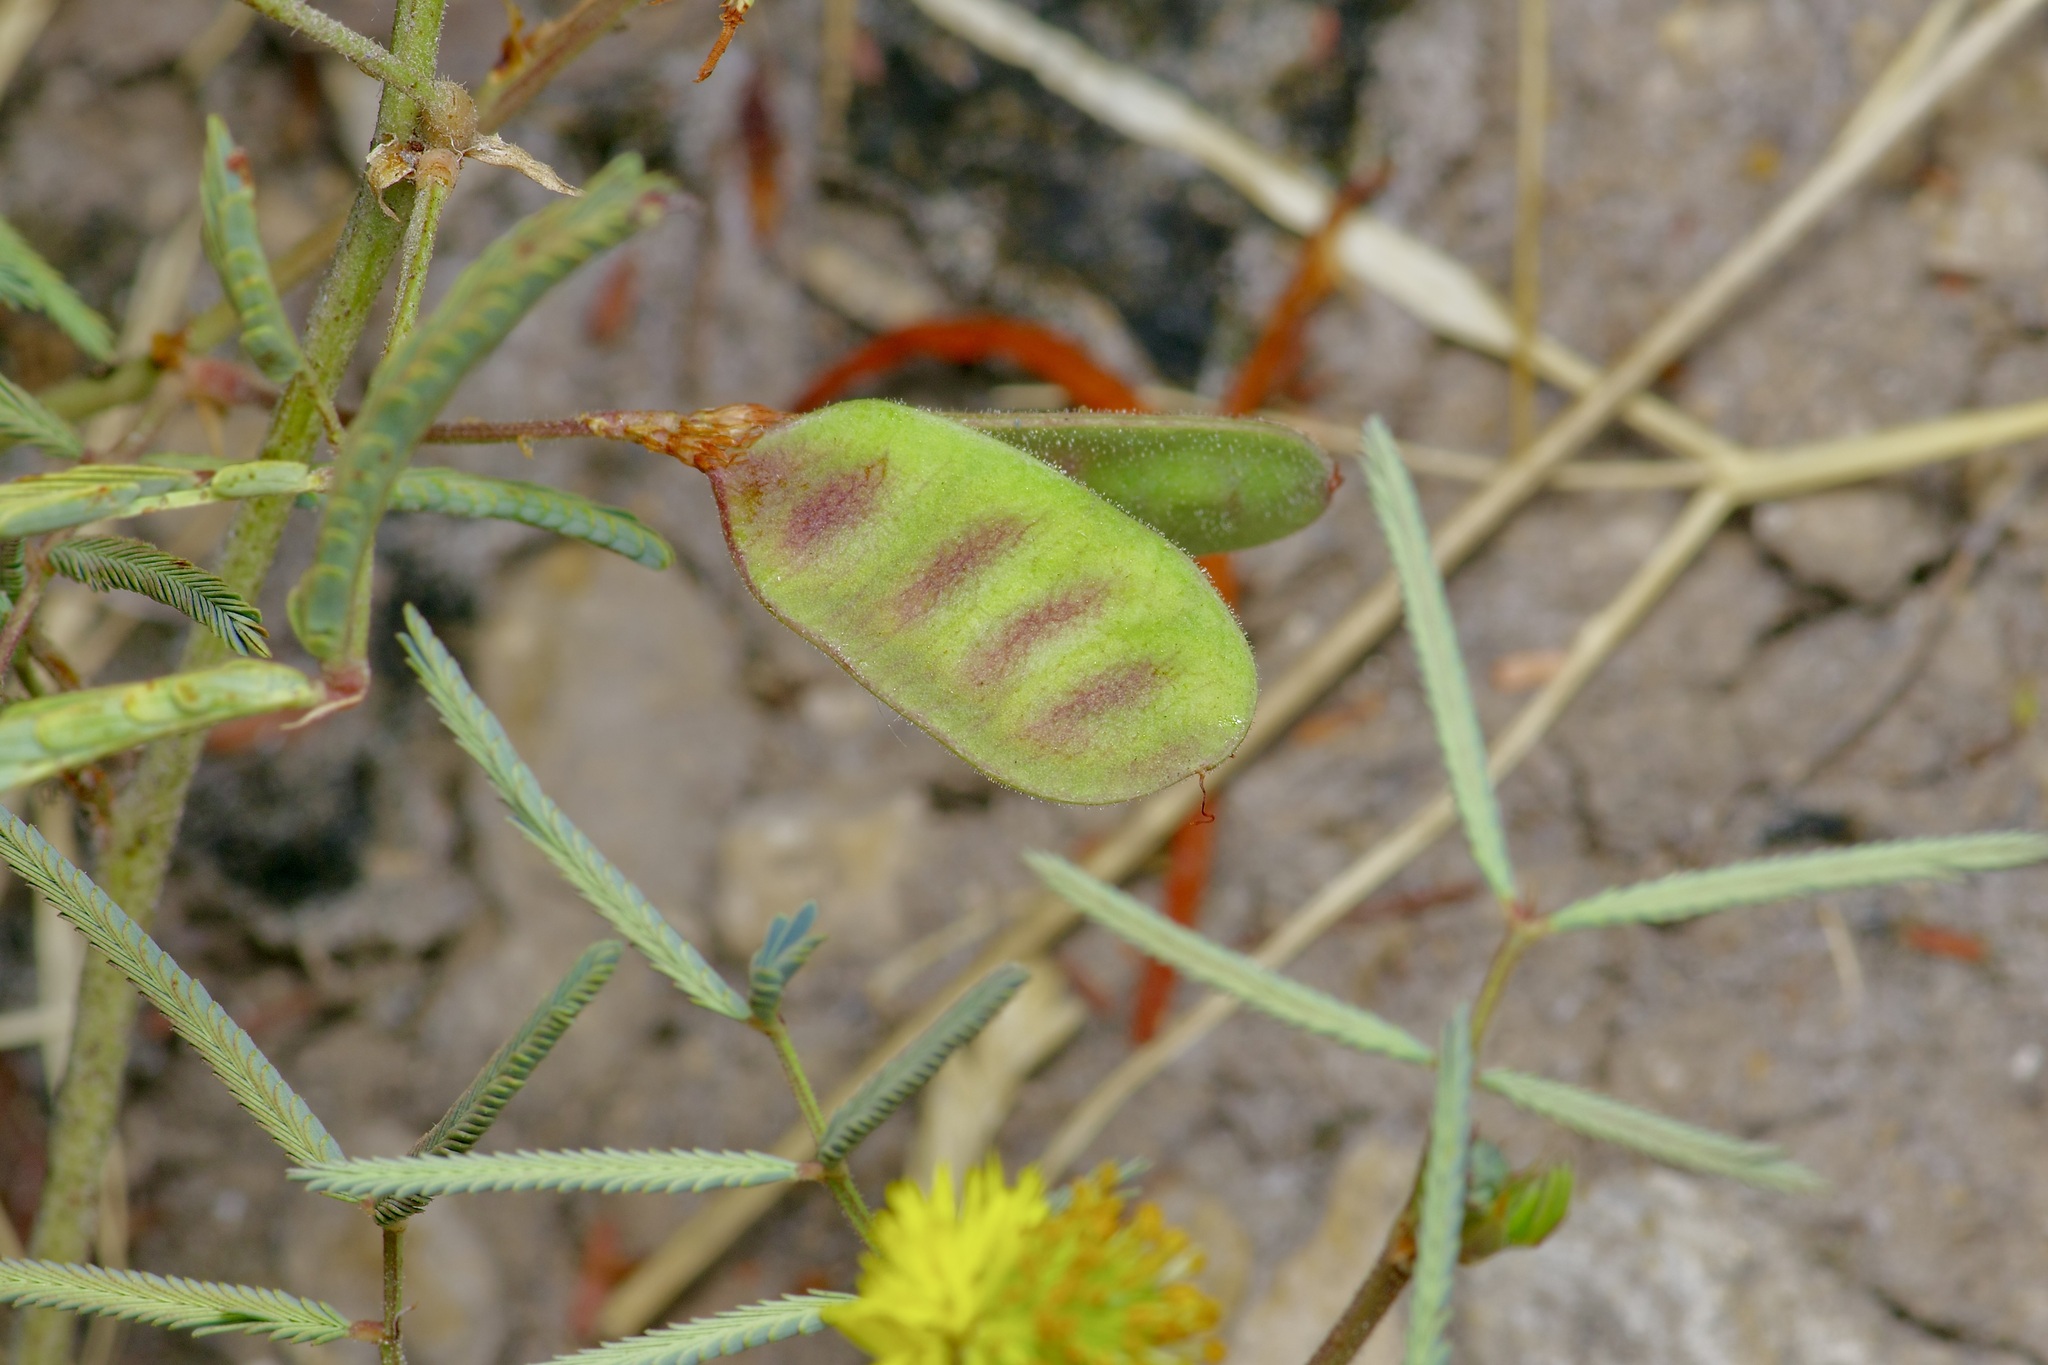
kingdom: Plantae
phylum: Tracheophyta
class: Magnoliopsida
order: Fabales
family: Fabaceae
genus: Neptunia
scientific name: Neptunia pubescens
